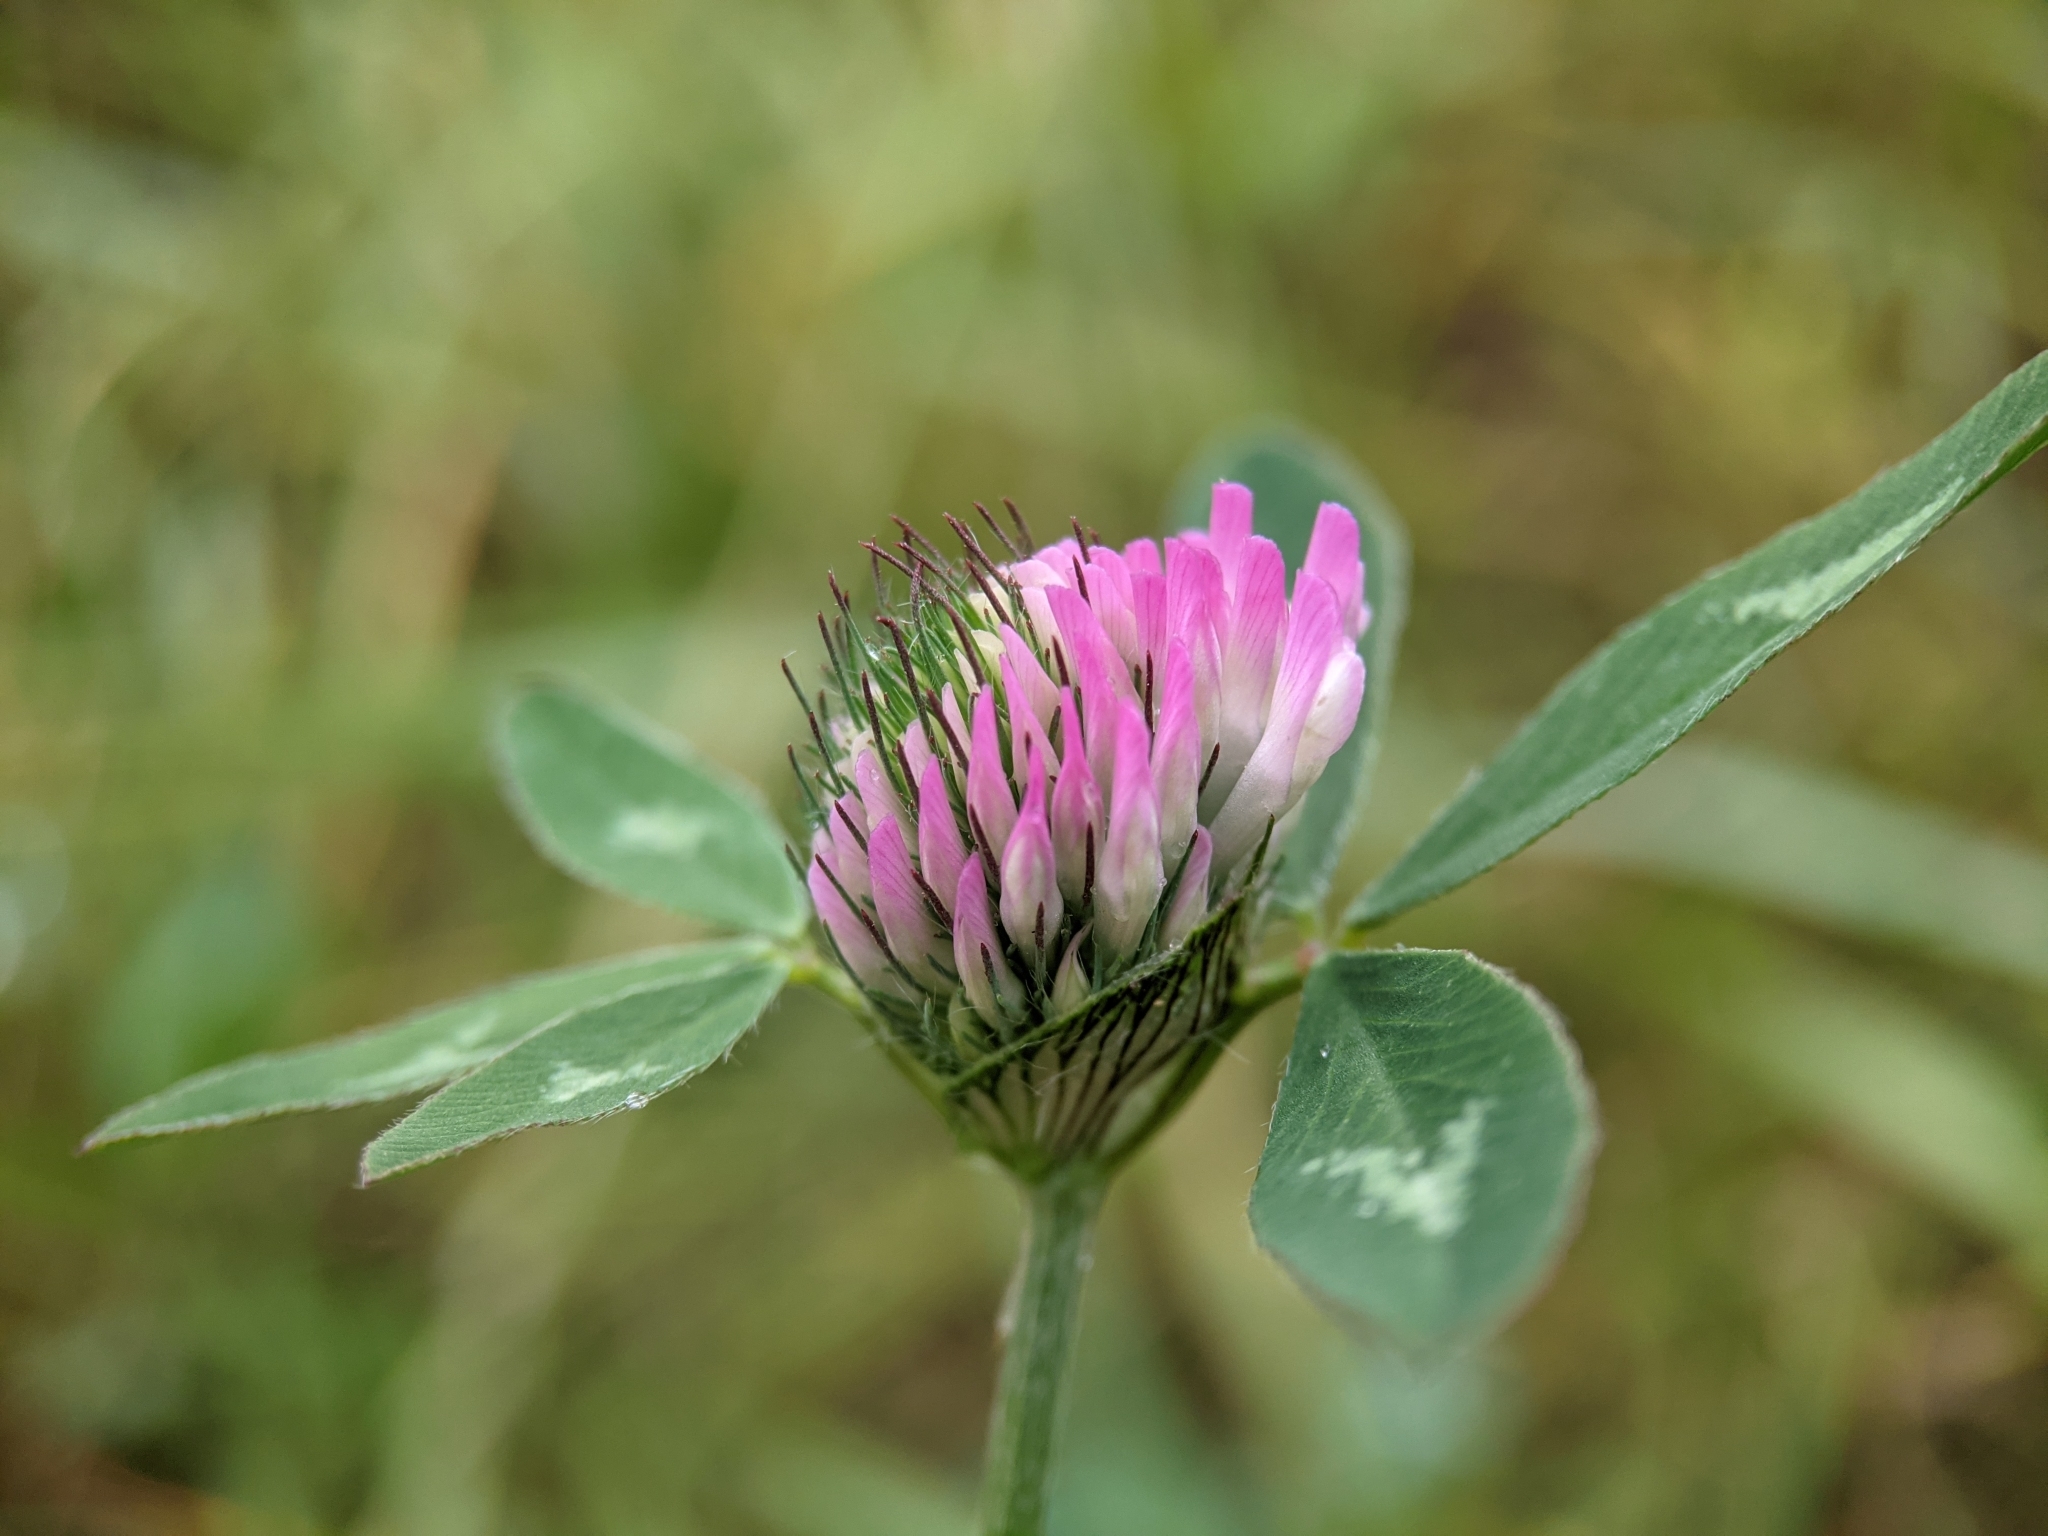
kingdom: Plantae
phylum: Tracheophyta
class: Magnoliopsida
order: Fabales
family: Fabaceae
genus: Trifolium
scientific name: Trifolium pratense
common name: Red clover
